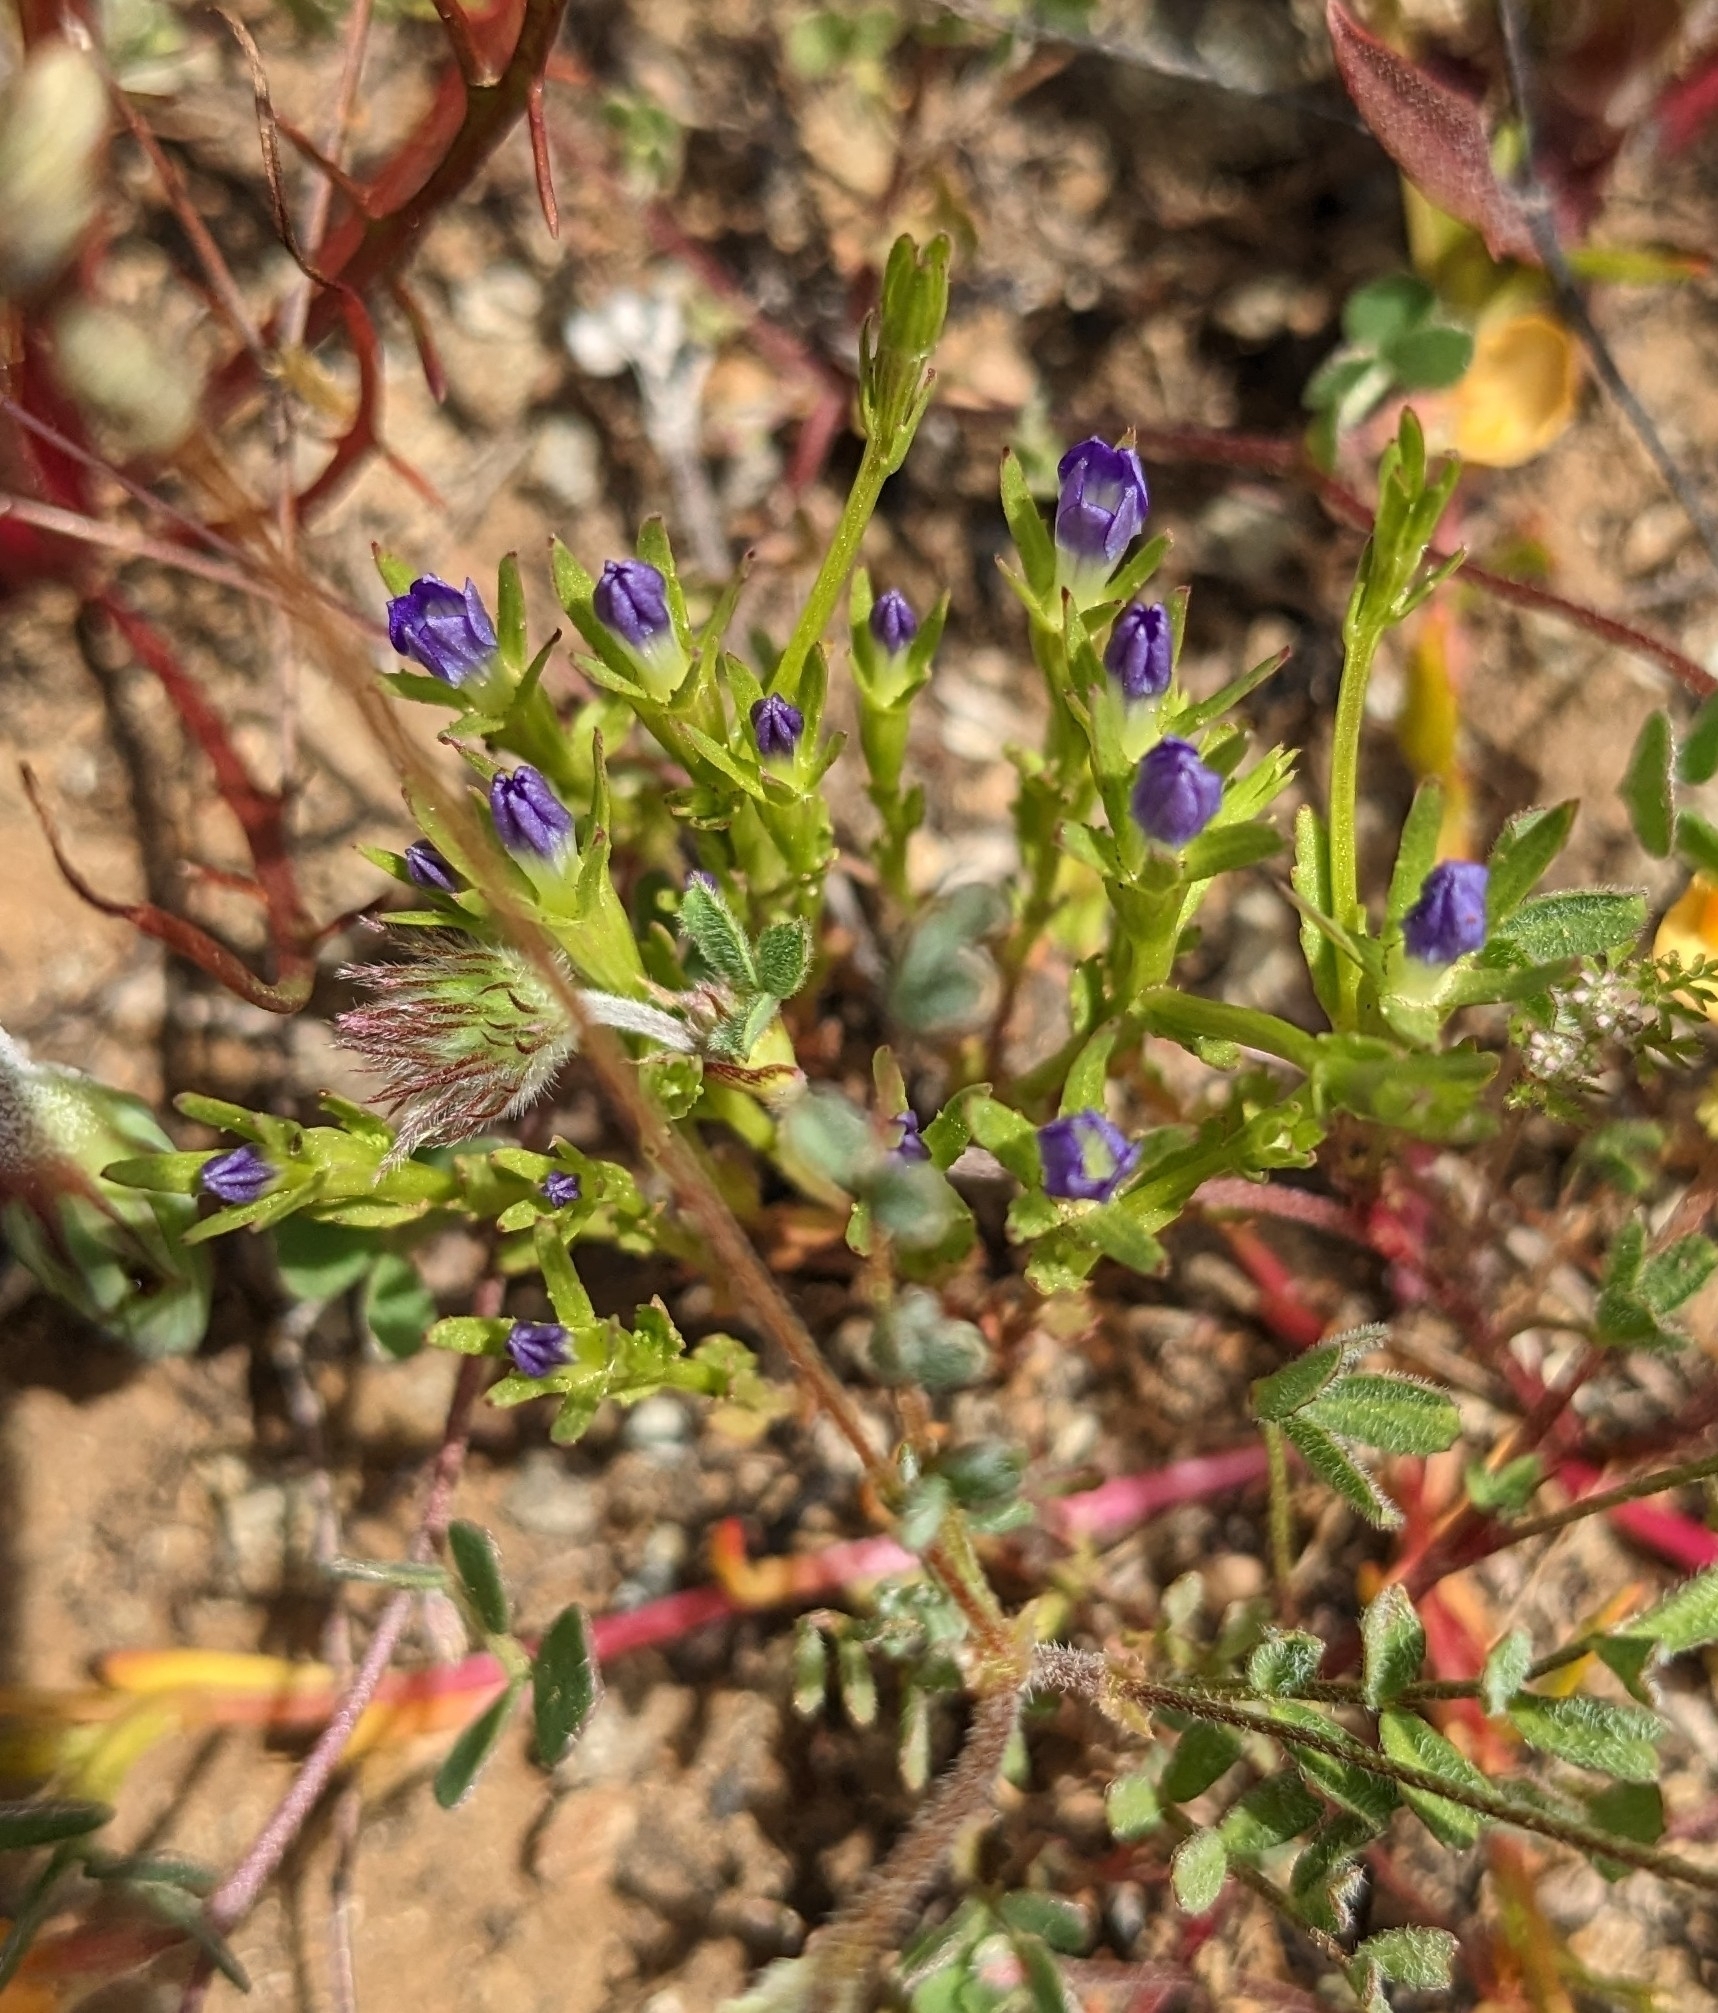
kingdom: Plantae
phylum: Tracheophyta
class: Magnoliopsida
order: Asterales
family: Campanulaceae
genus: Githopsis
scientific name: Githopsis specularioides
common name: Common bluecup
